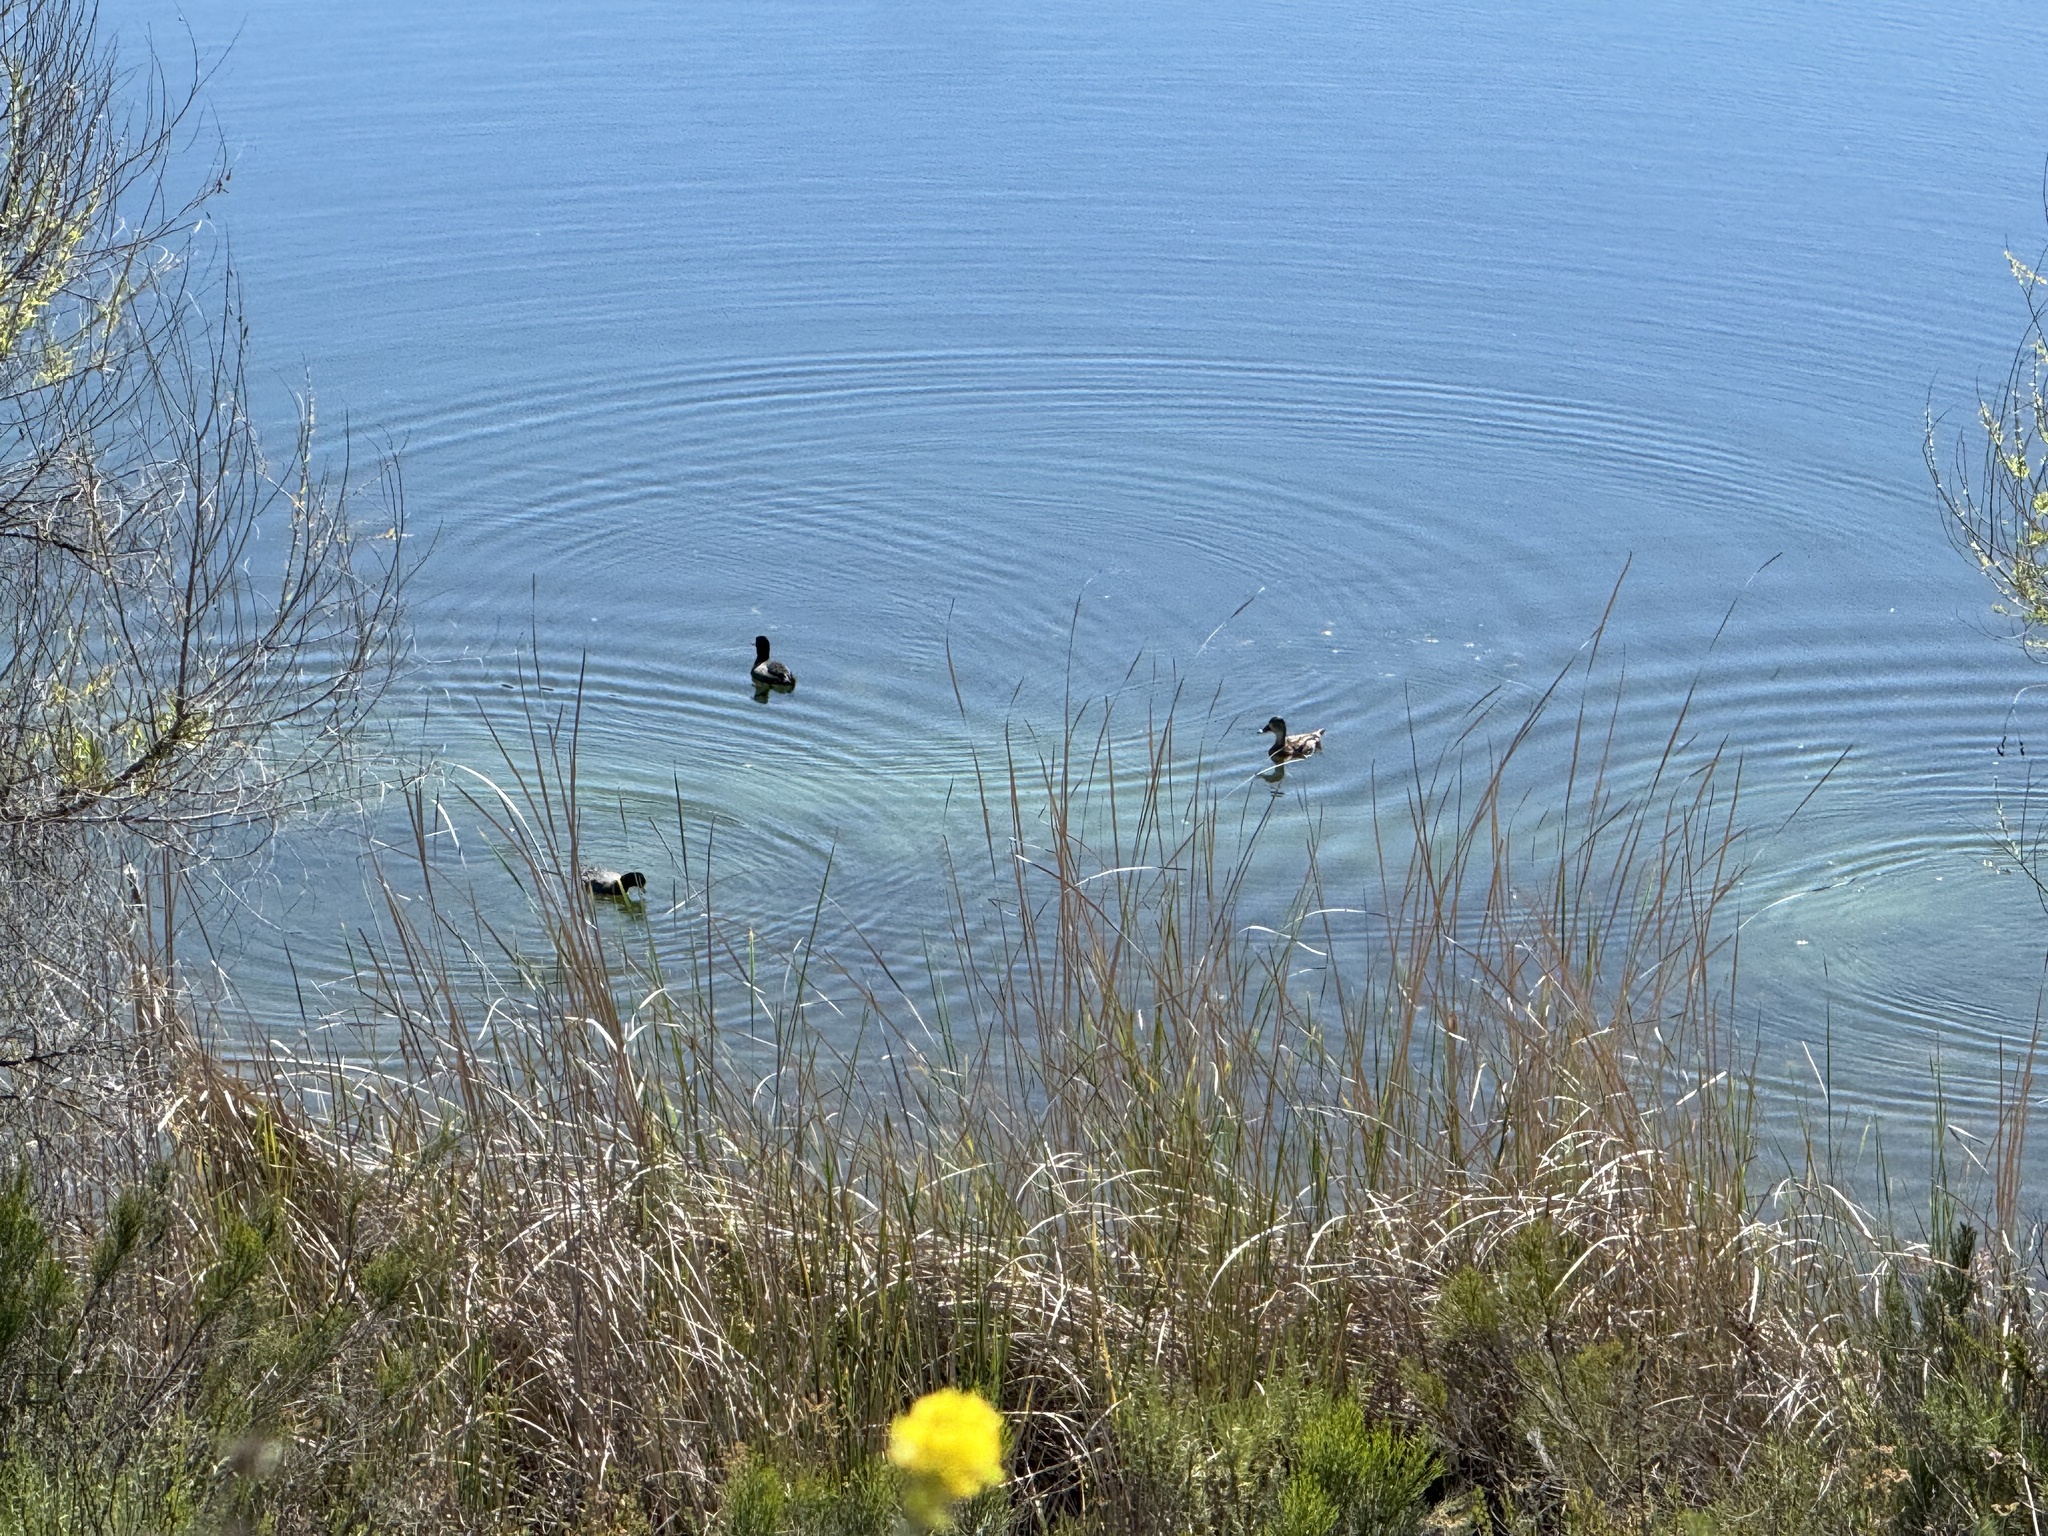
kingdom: Animalia
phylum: Chordata
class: Aves
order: Gruiformes
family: Rallidae
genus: Fulica
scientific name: Fulica americana
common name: American coot
